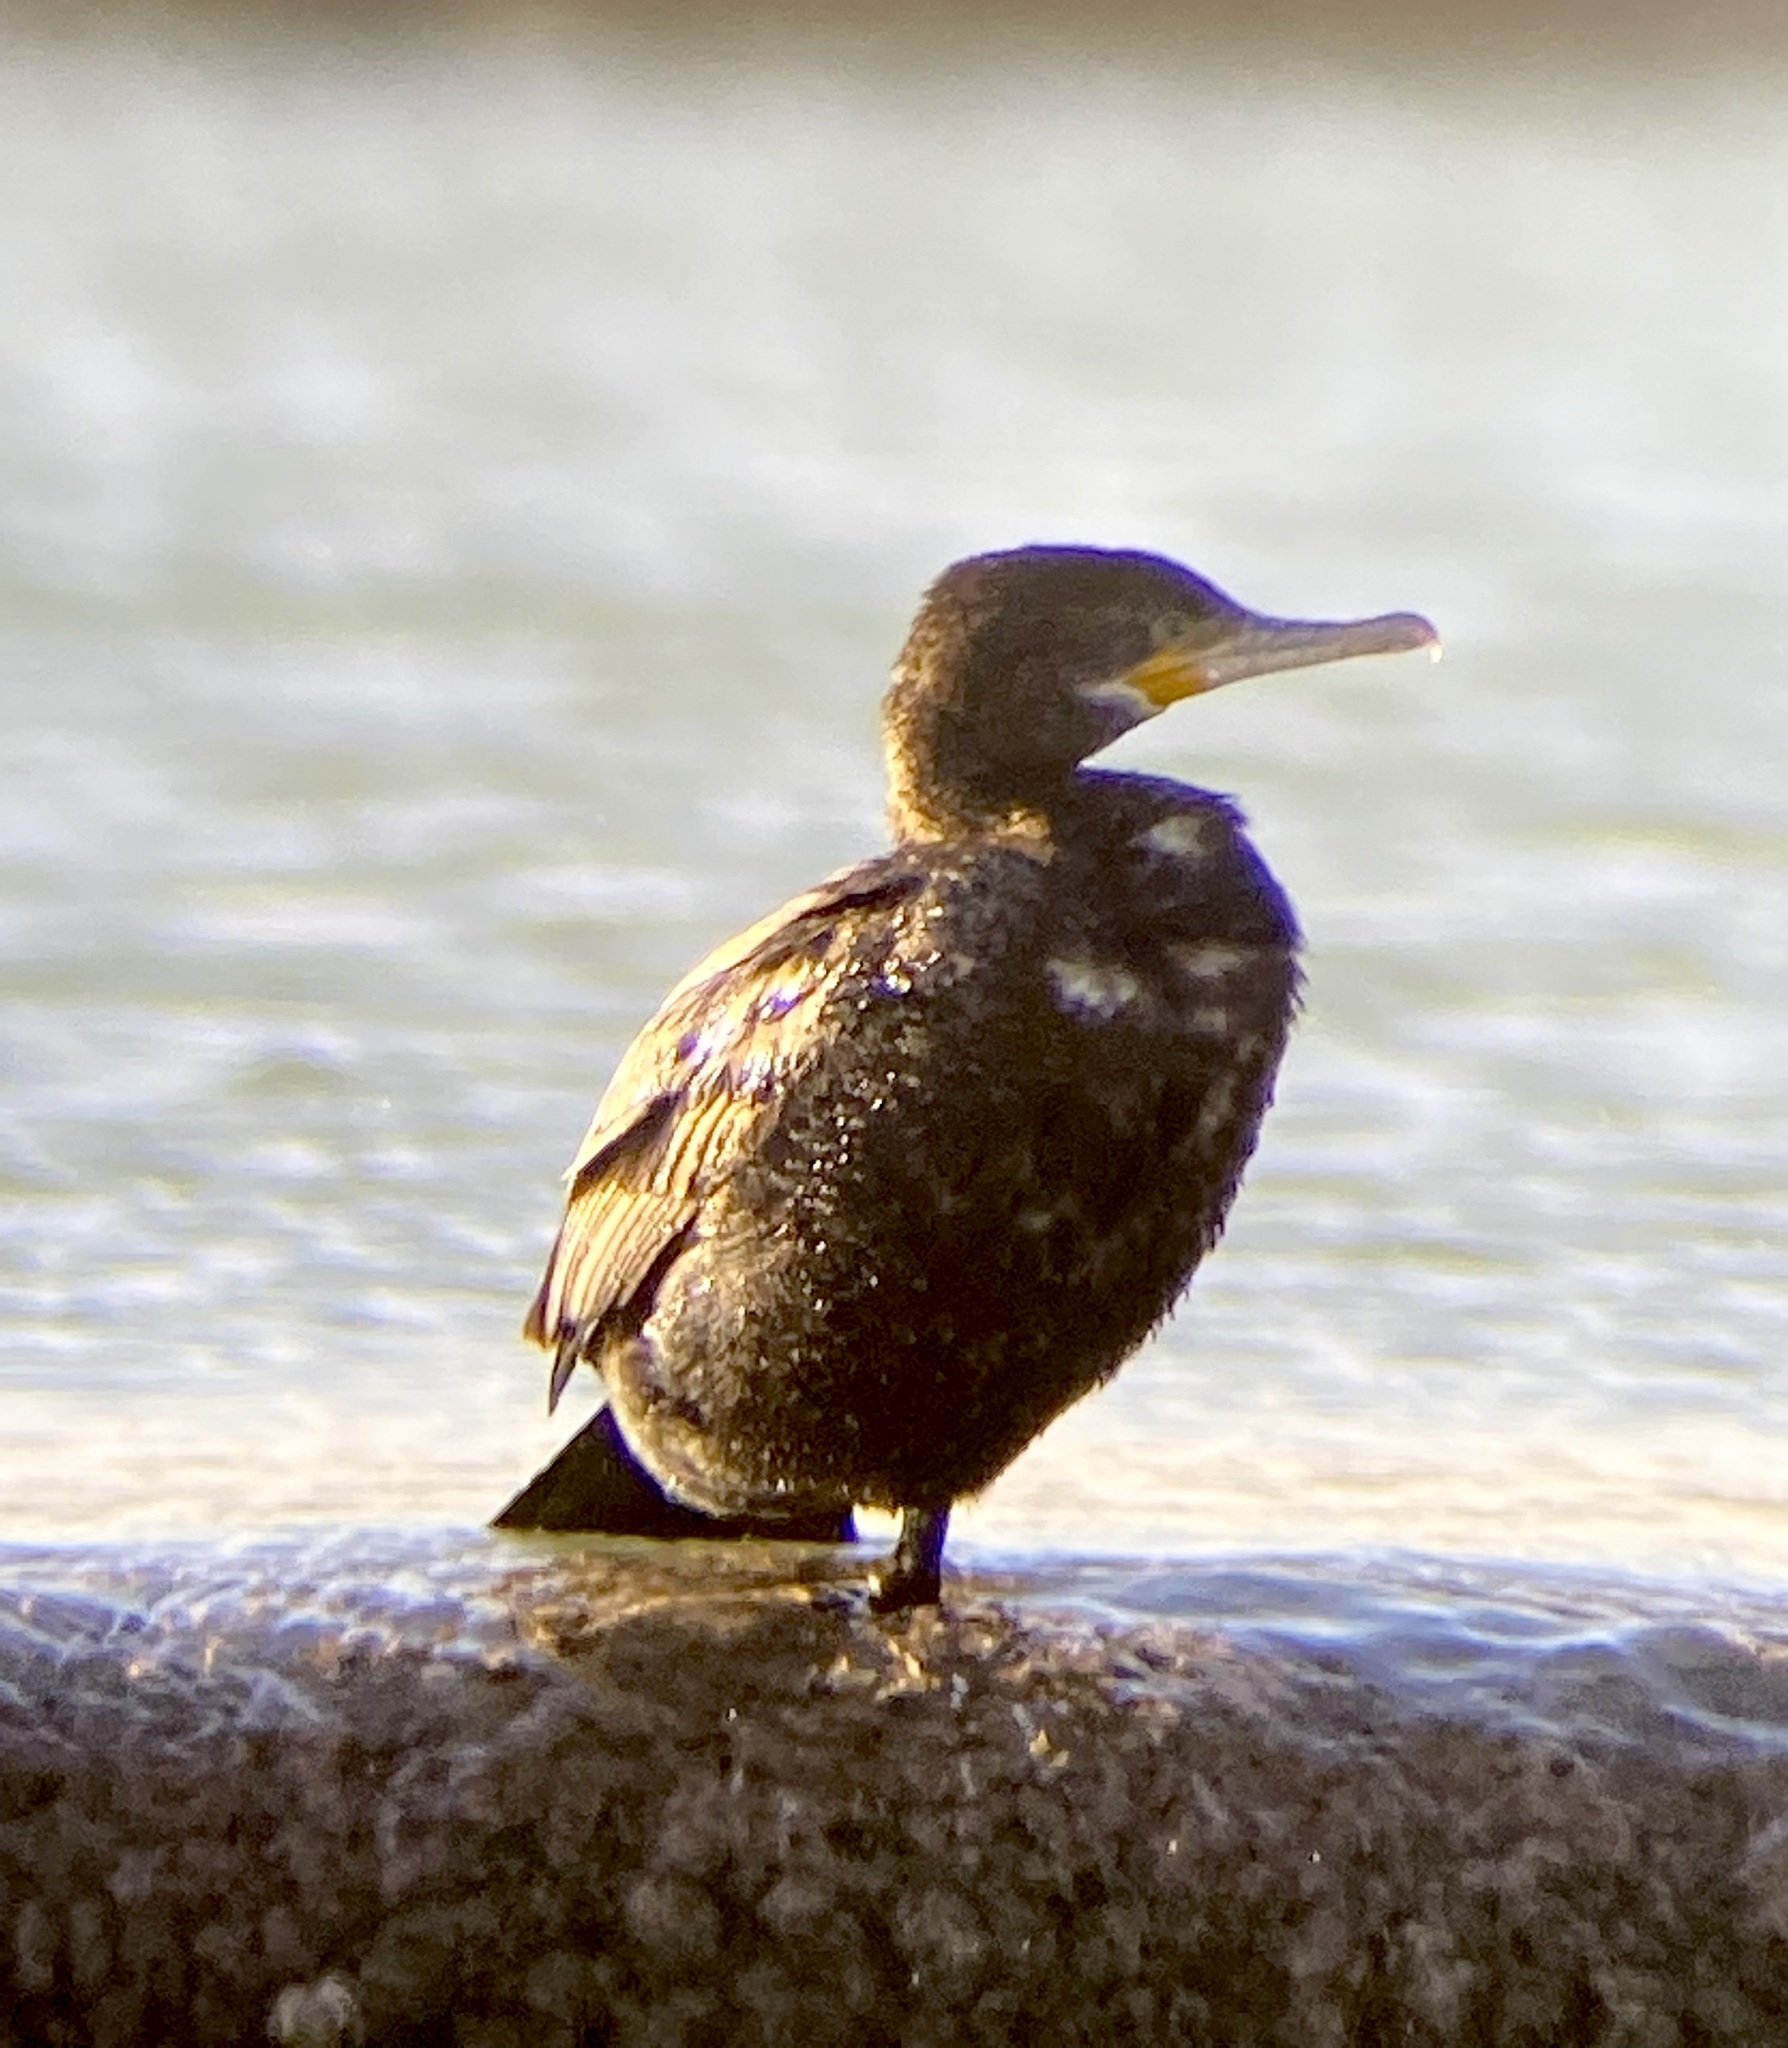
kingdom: Animalia
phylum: Chordata
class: Aves
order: Suliformes
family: Phalacrocoracidae
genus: Phalacrocorax
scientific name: Phalacrocorax brasilianus
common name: Neotropic cormorant
